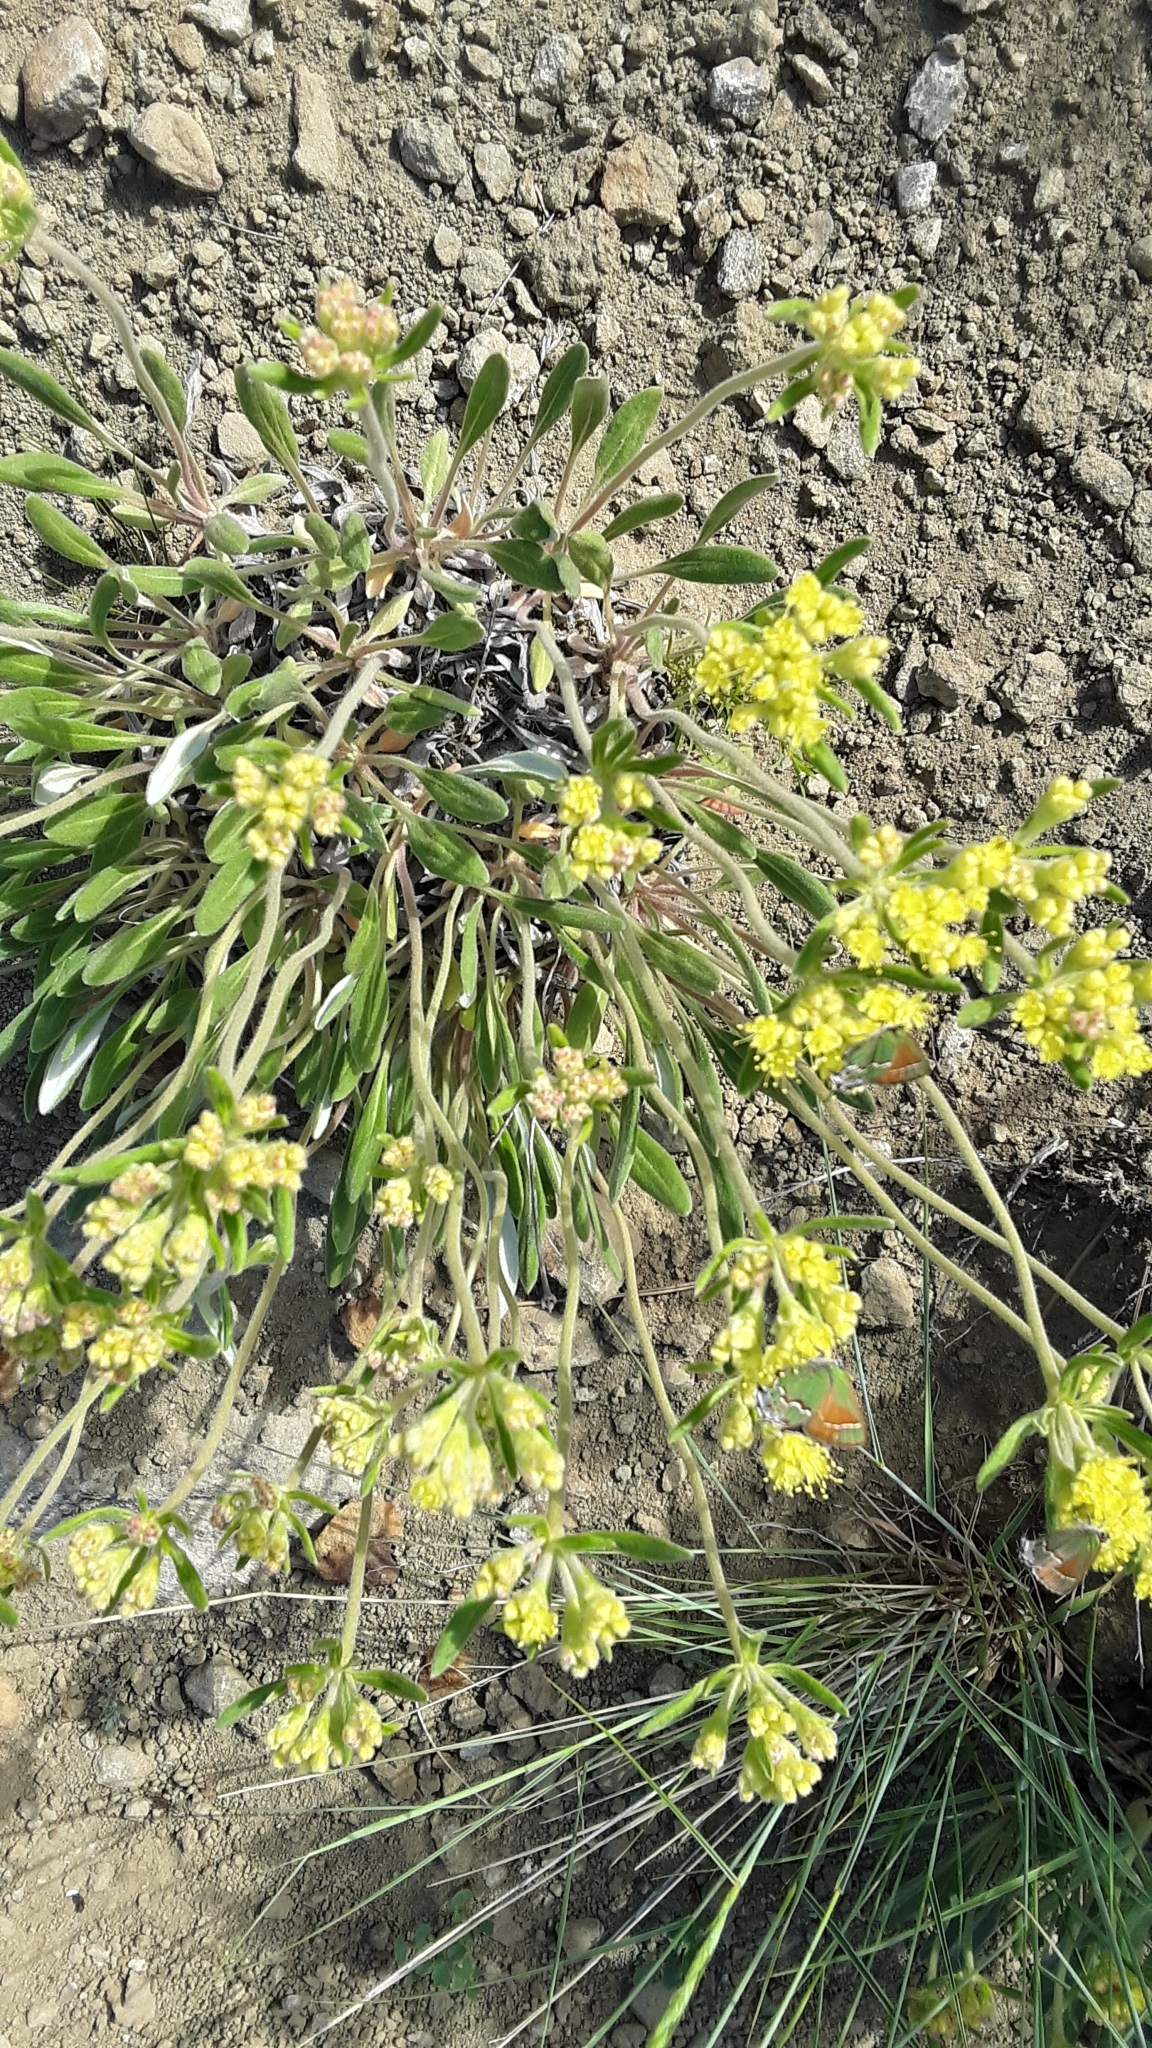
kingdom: Plantae
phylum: Tracheophyta
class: Magnoliopsida
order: Caryophyllales
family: Polygonaceae
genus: Eriogonum
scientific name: Eriogonum flavum
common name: Alpine golden wild buckwheat
